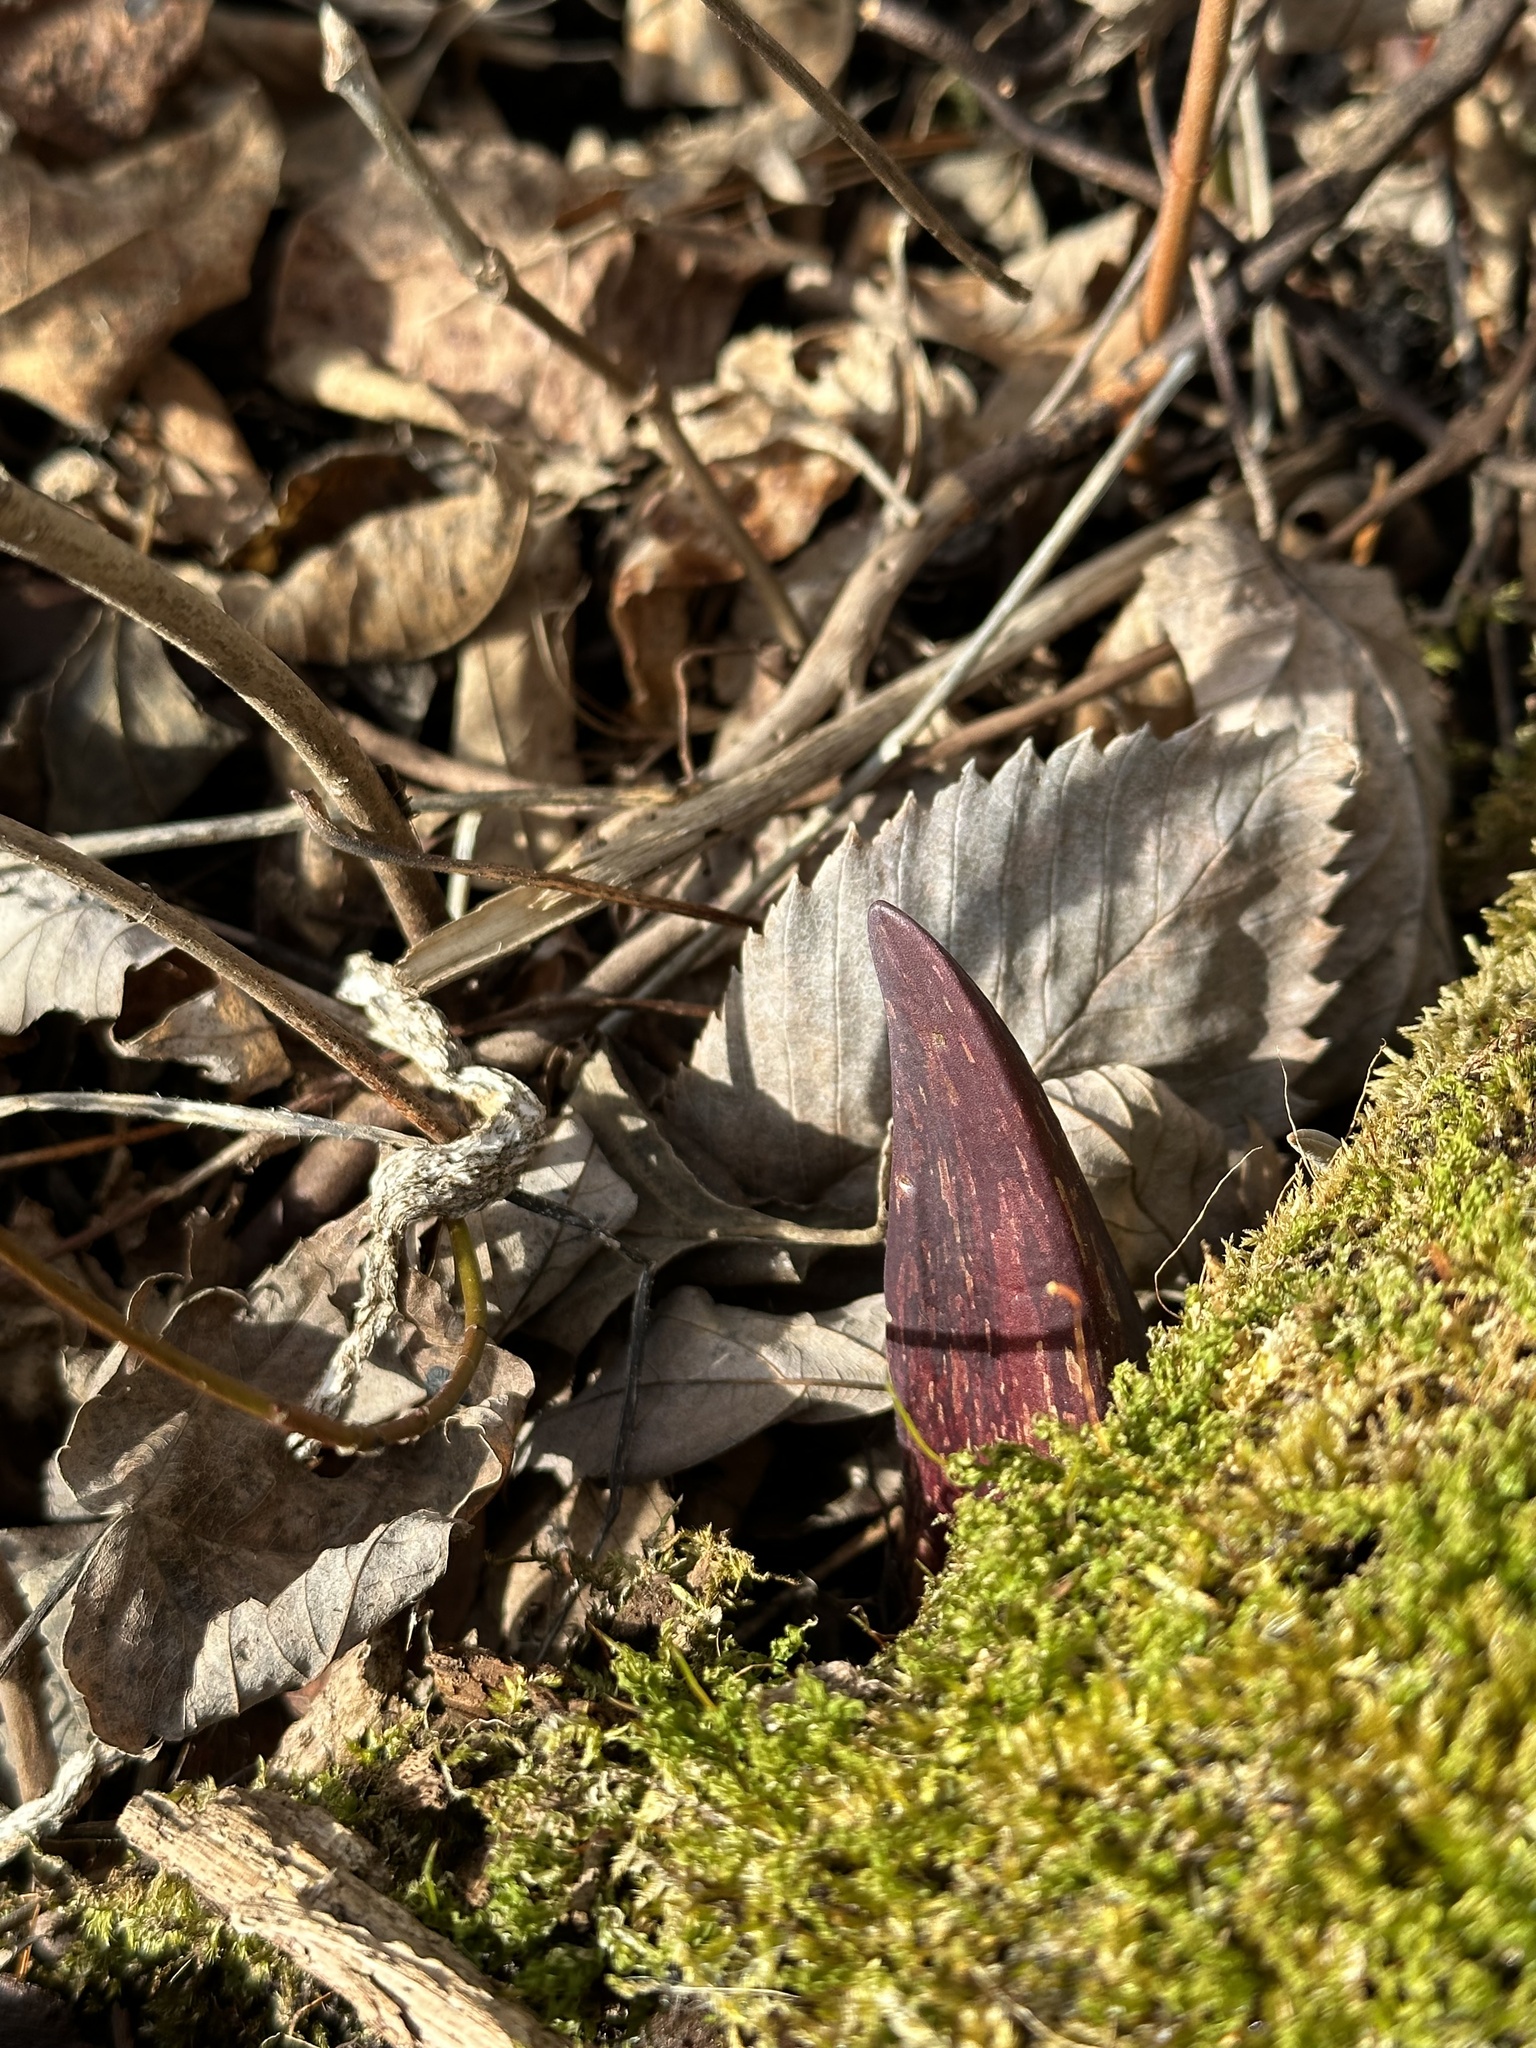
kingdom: Plantae
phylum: Tracheophyta
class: Liliopsida
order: Alismatales
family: Araceae
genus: Symplocarpus
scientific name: Symplocarpus foetidus
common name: Eastern skunk cabbage
